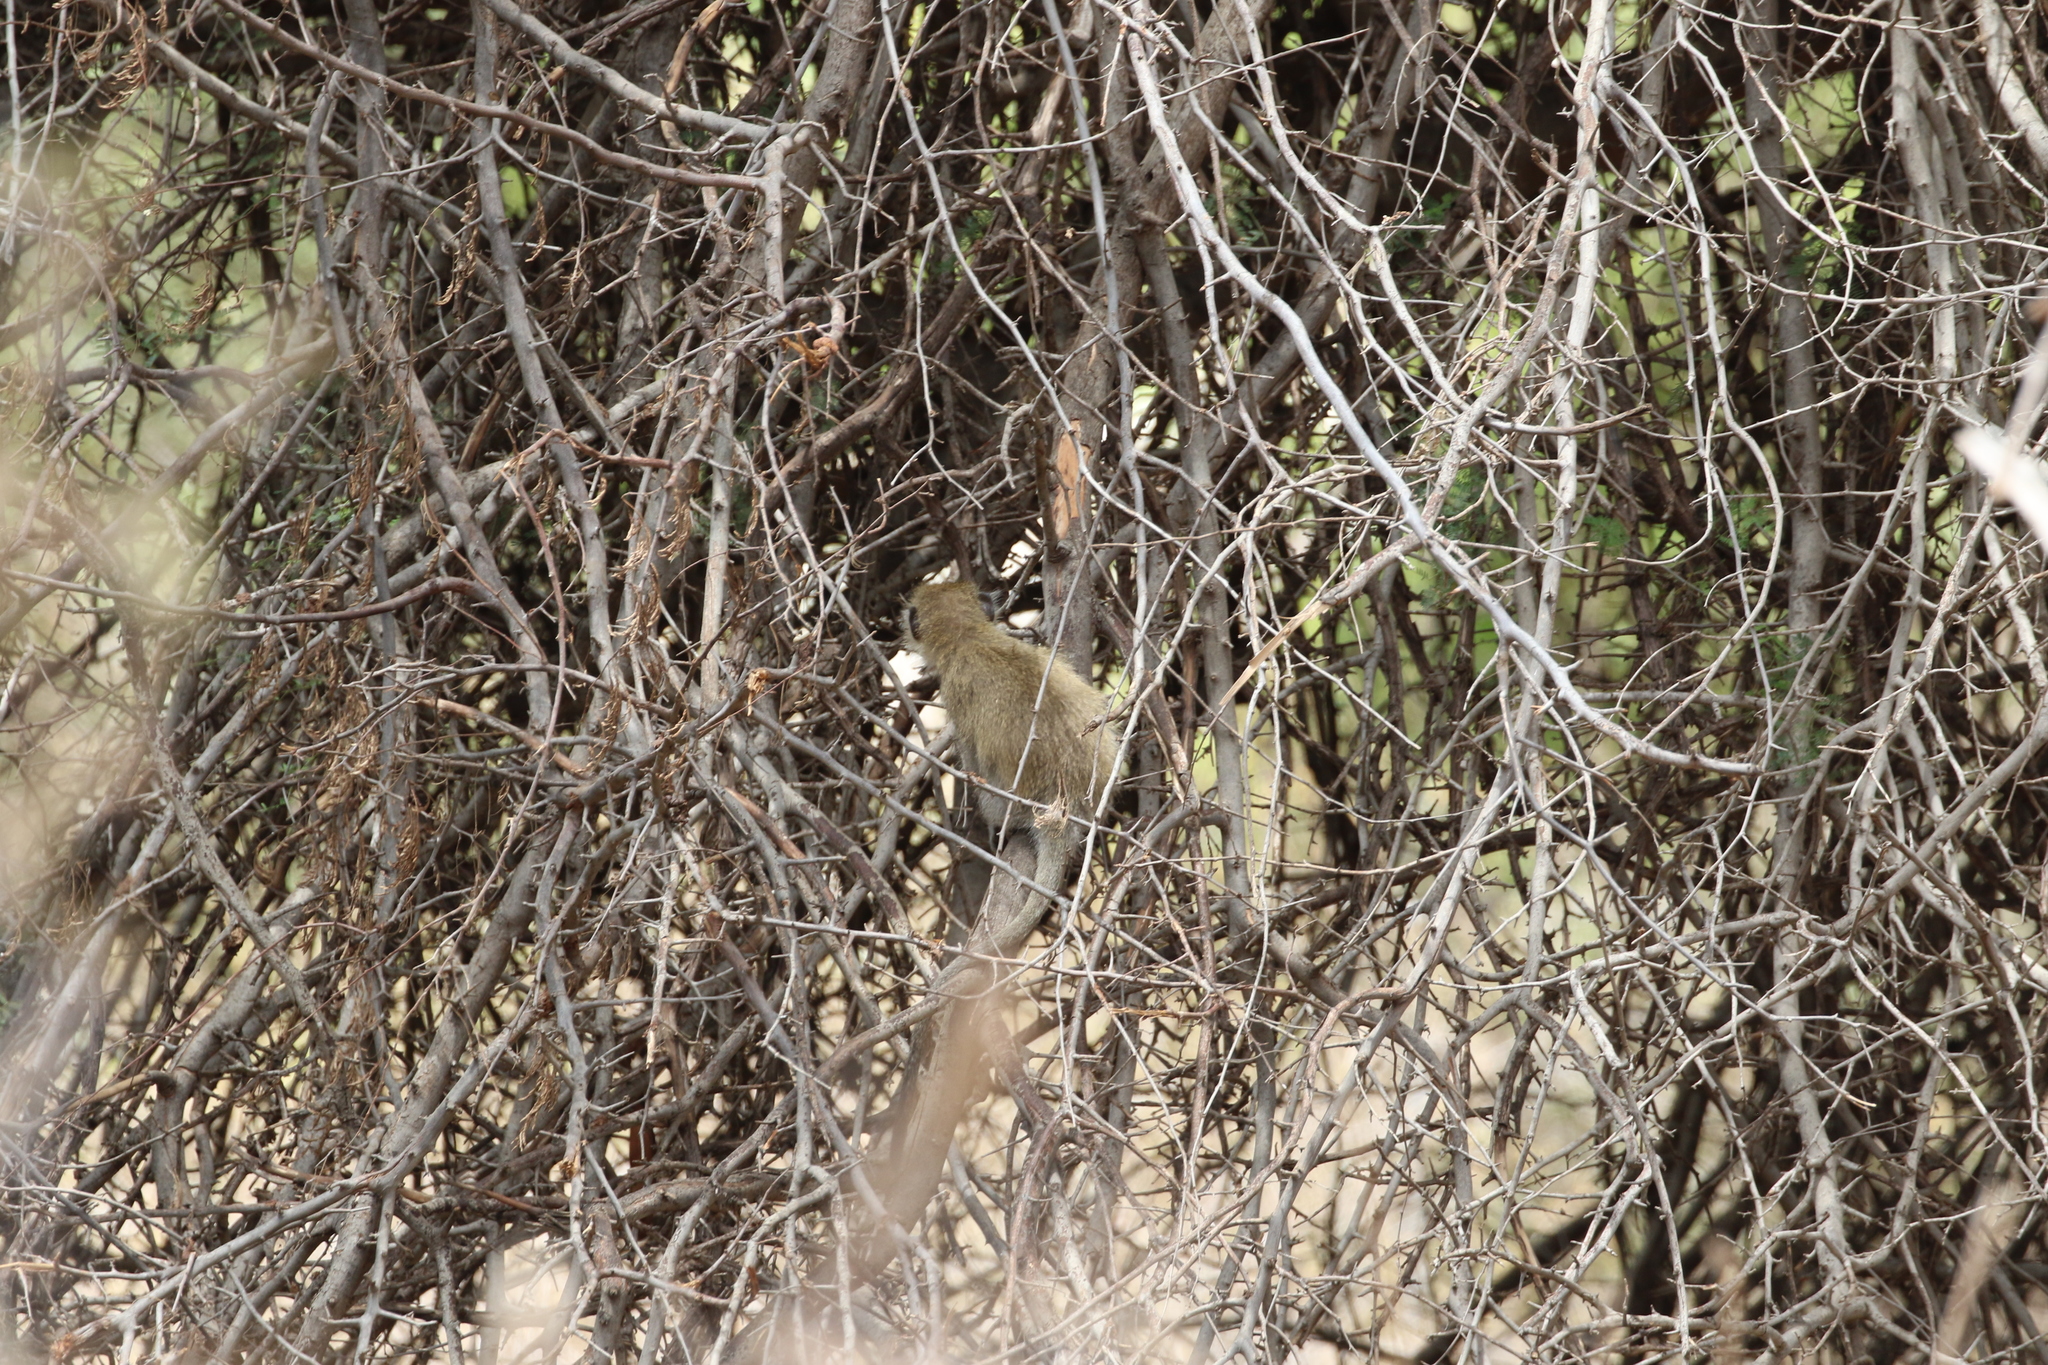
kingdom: Animalia
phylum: Chordata
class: Mammalia
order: Primates
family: Cercopithecidae
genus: Chlorocebus
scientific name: Chlorocebus pygerythrus
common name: Vervet monkey
